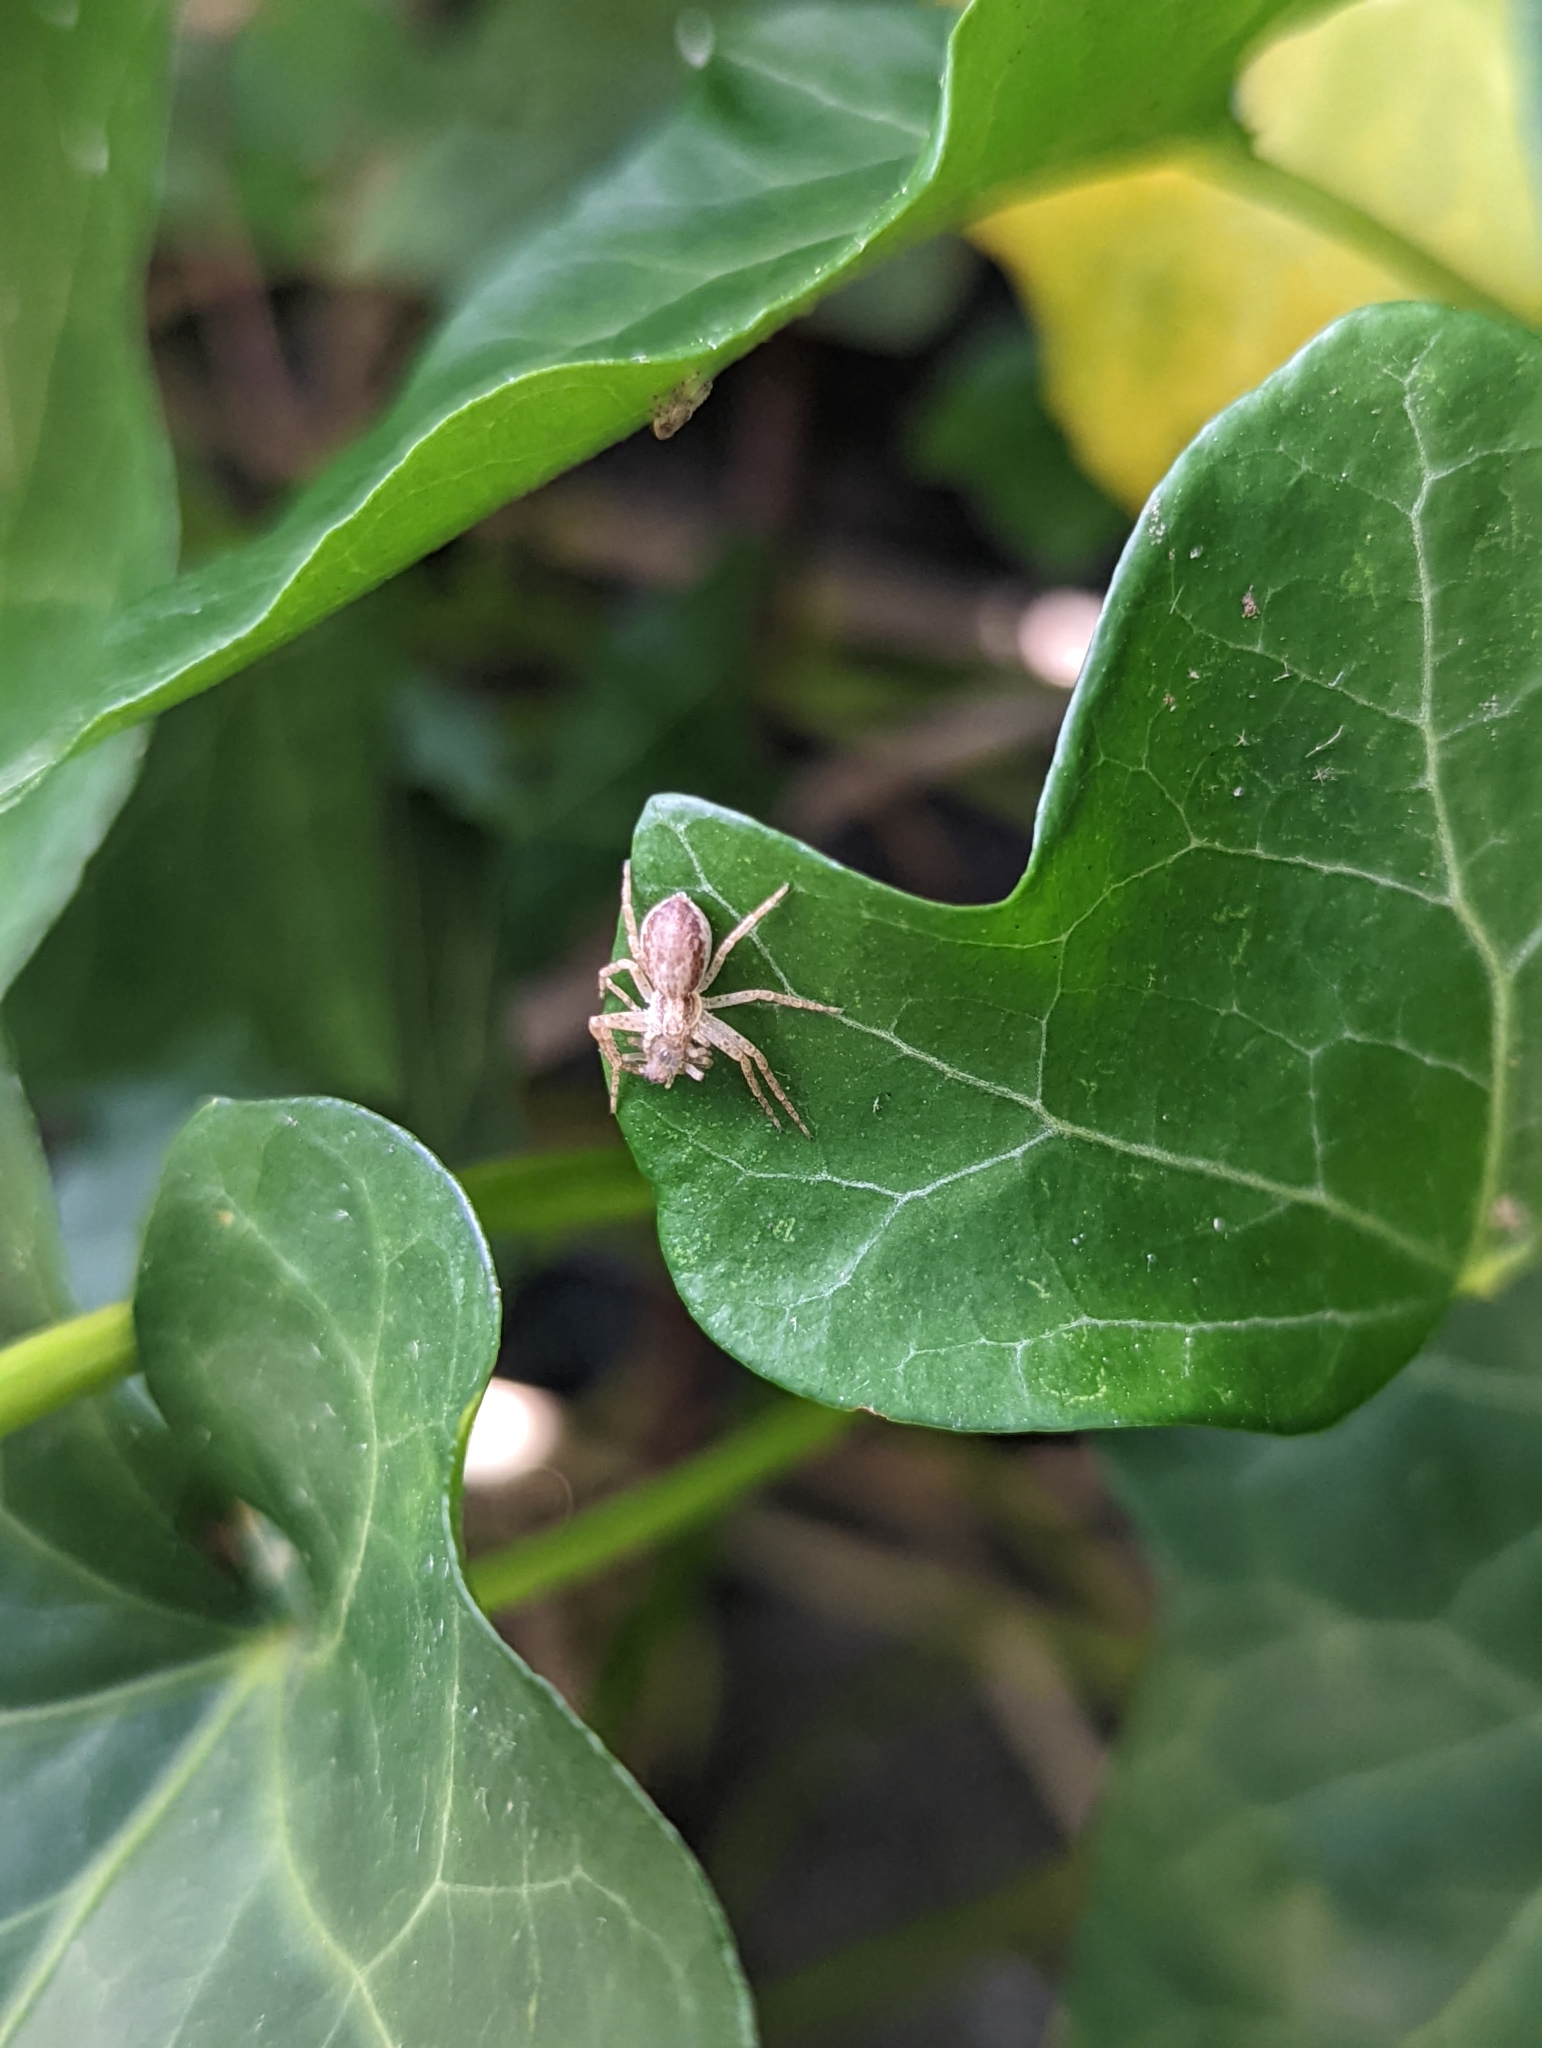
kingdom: Animalia
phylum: Arthropoda
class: Arachnida
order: Araneae
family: Philodromidae
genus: Philodromus
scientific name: Philodromus dispar
